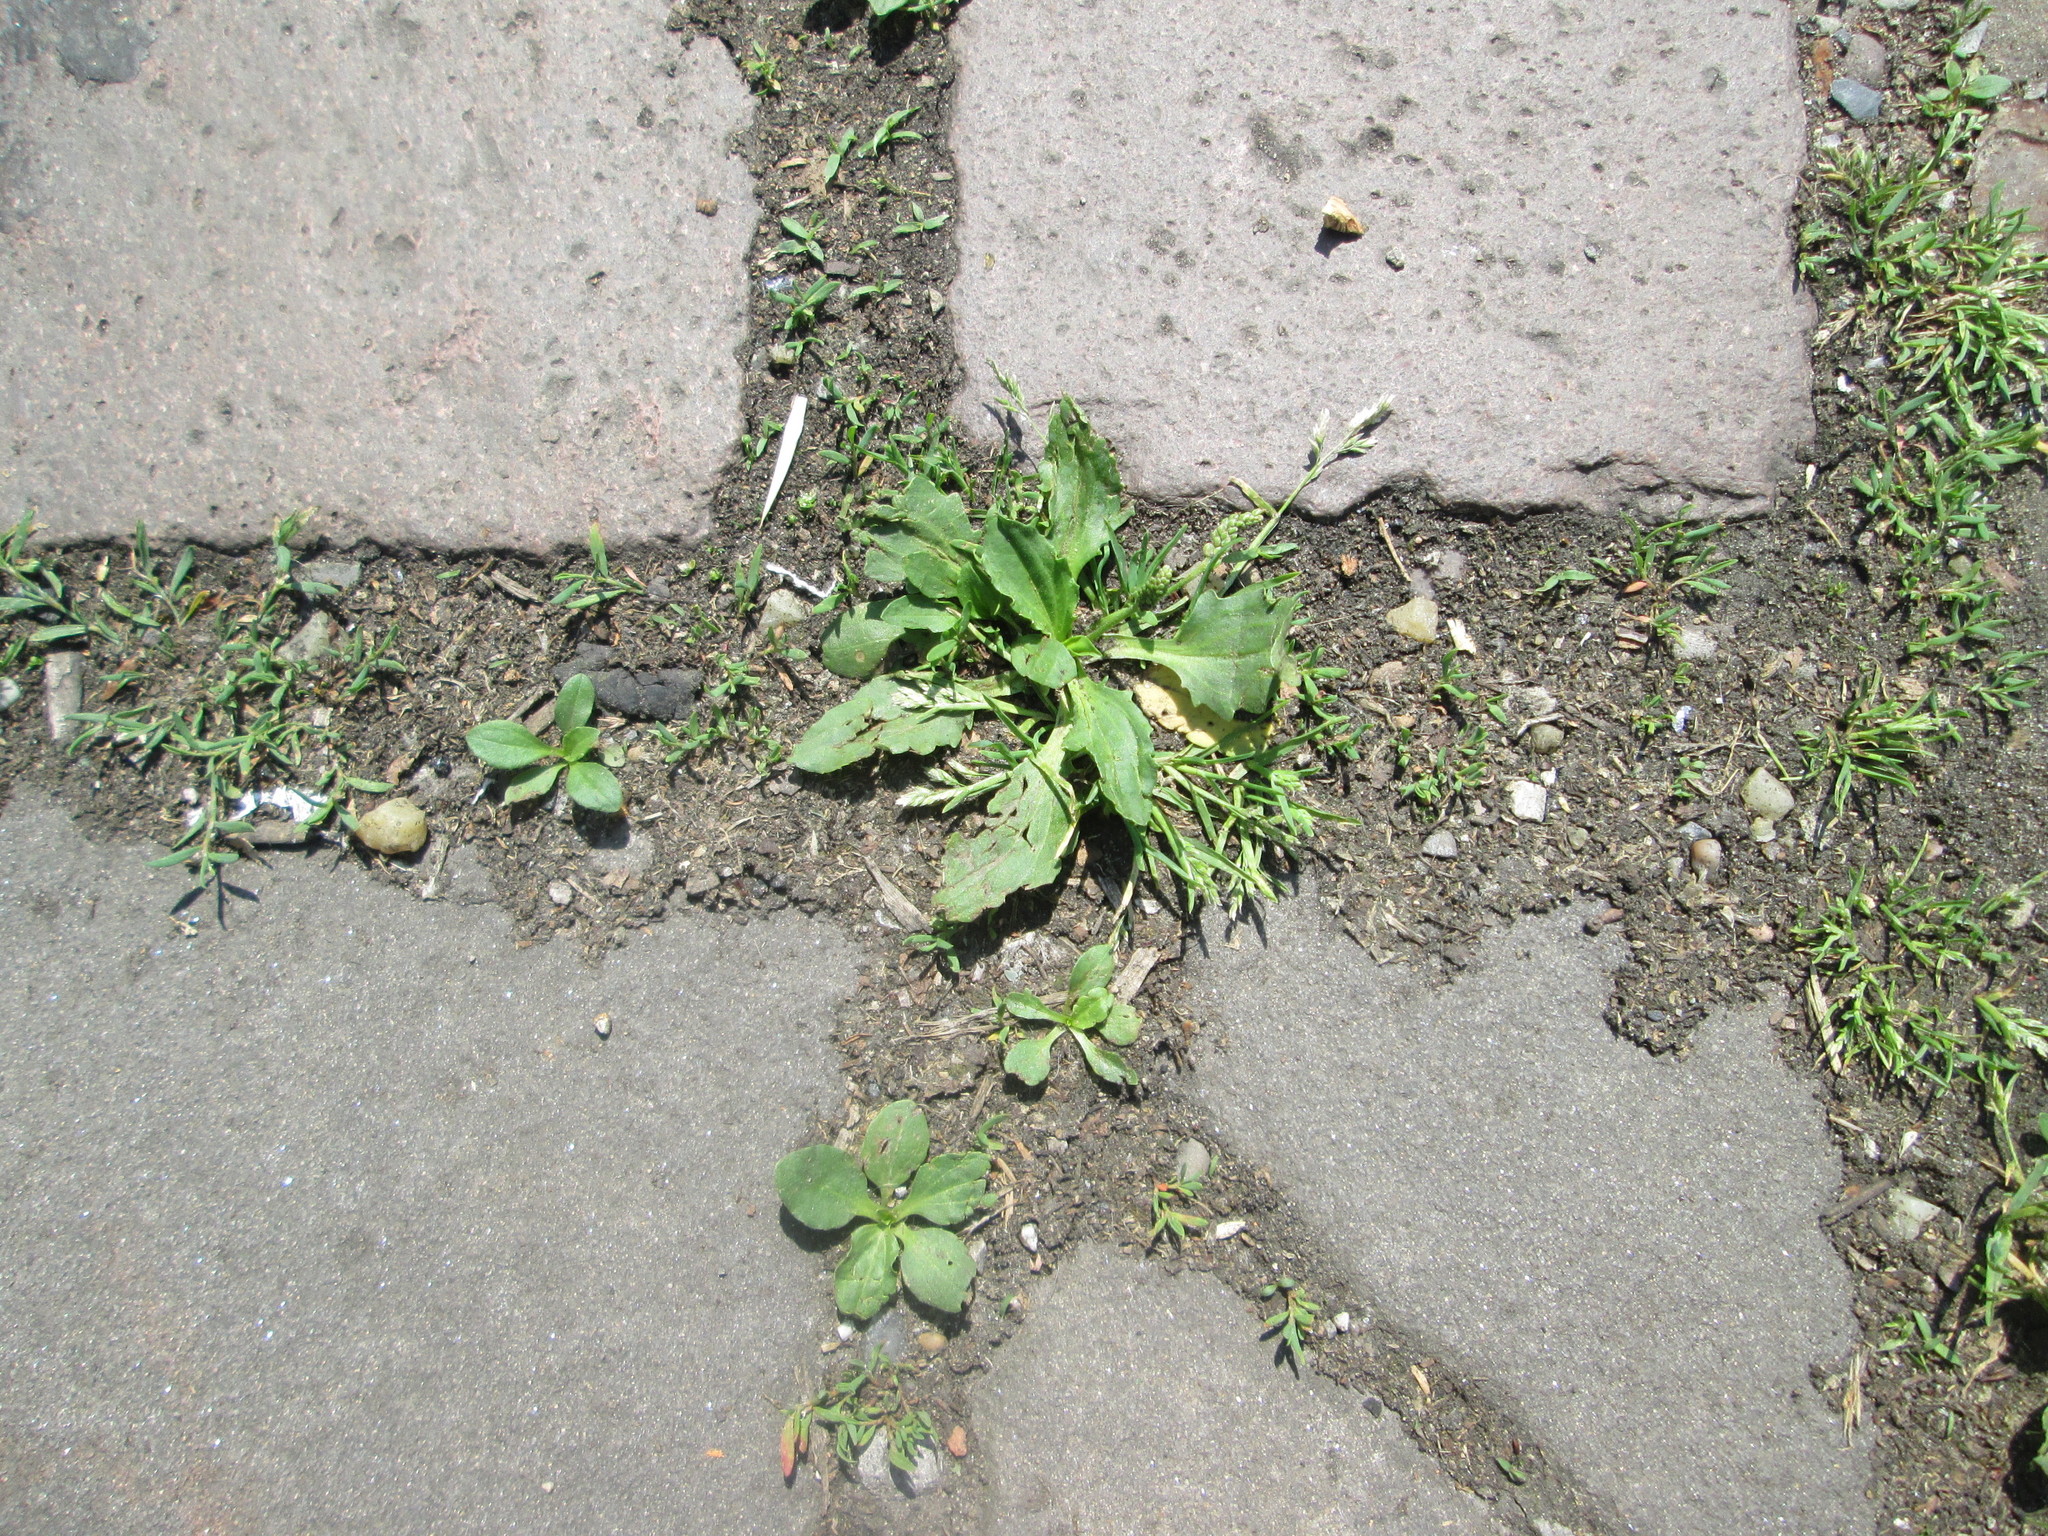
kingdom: Plantae
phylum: Tracheophyta
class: Magnoliopsida
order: Lamiales
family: Plantaginaceae
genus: Plantago
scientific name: Plantago major
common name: Common plantain
